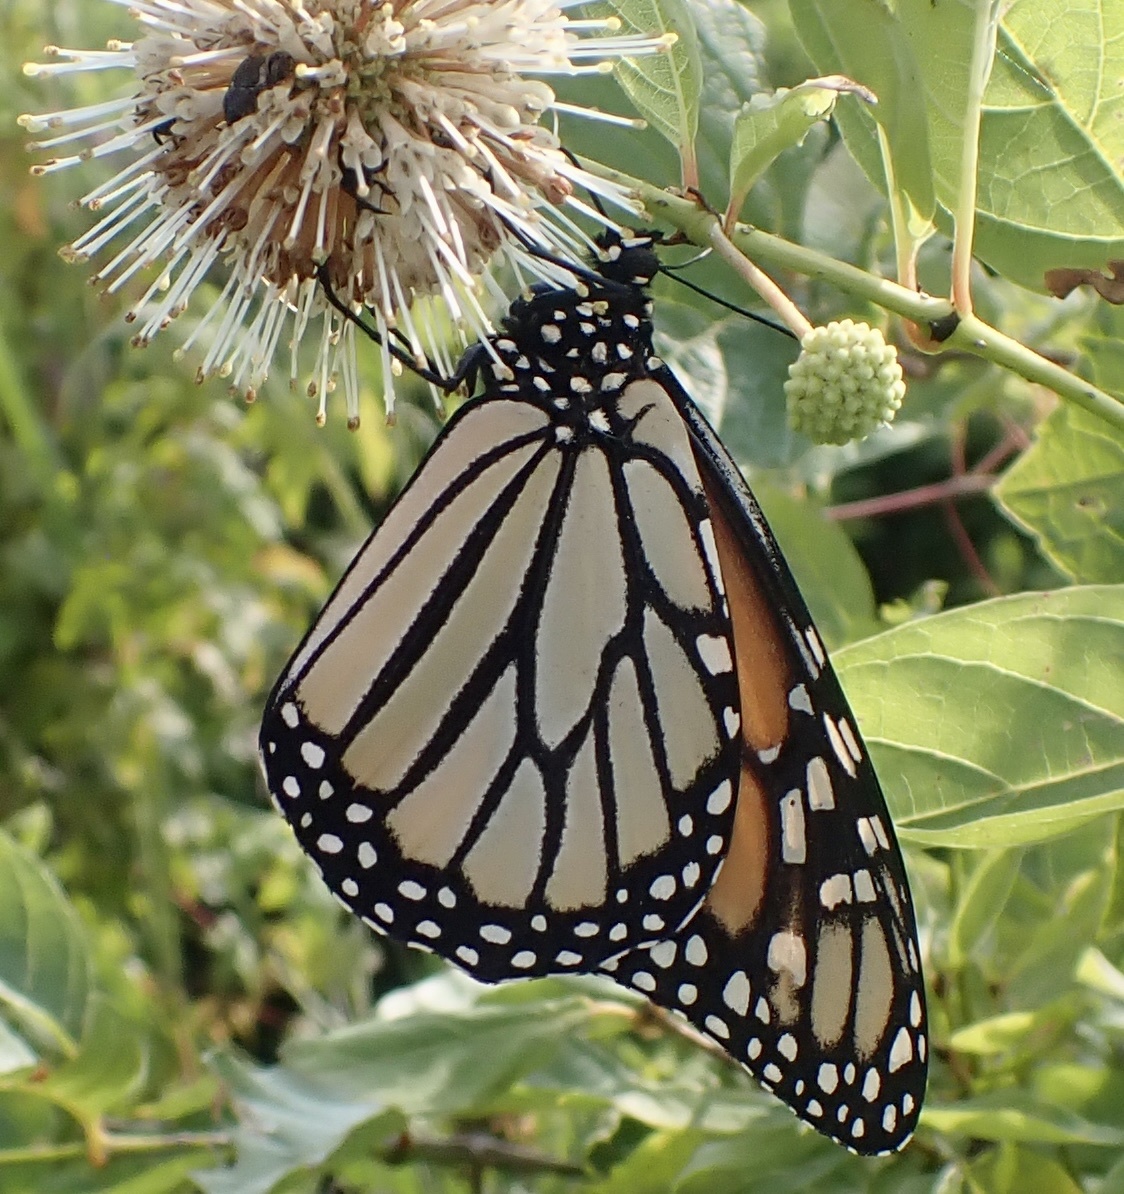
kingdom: Animalia
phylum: Arthropoda
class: Insecta
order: Lepidoptera
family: Nymphalidae
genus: Danaus
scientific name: Danaus plexippus
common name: Monarch
